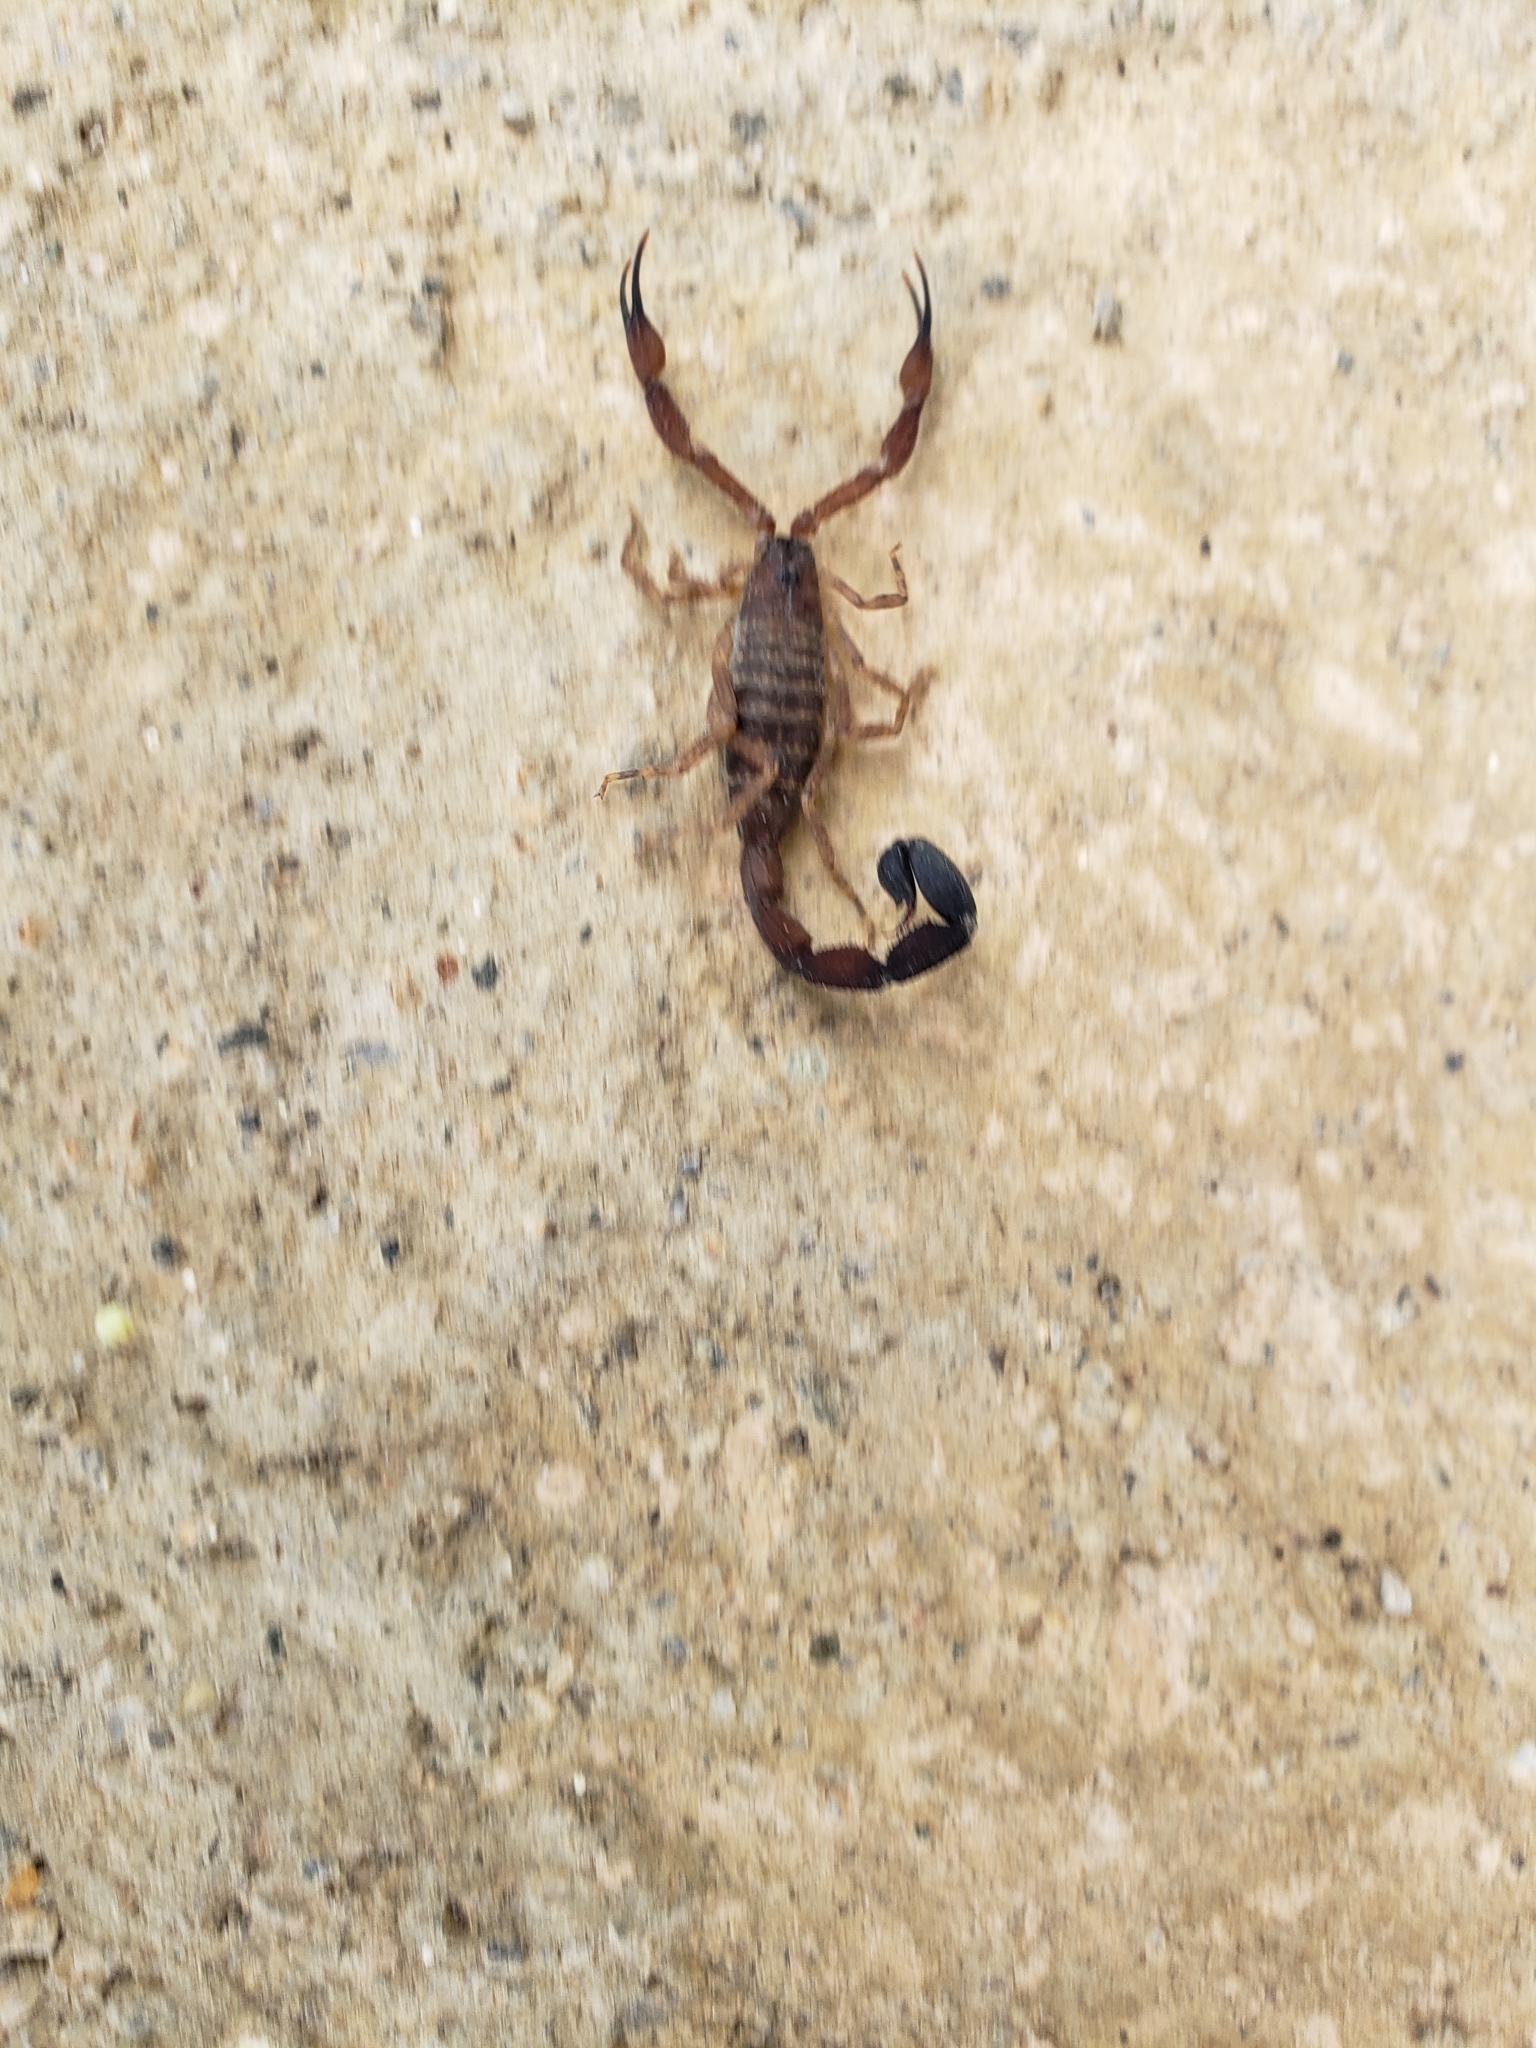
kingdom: Animalia
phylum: Arthropoda
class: Arachnida
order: Scorpiones
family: Buthidae
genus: Tityus
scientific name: Tityus discrepans
